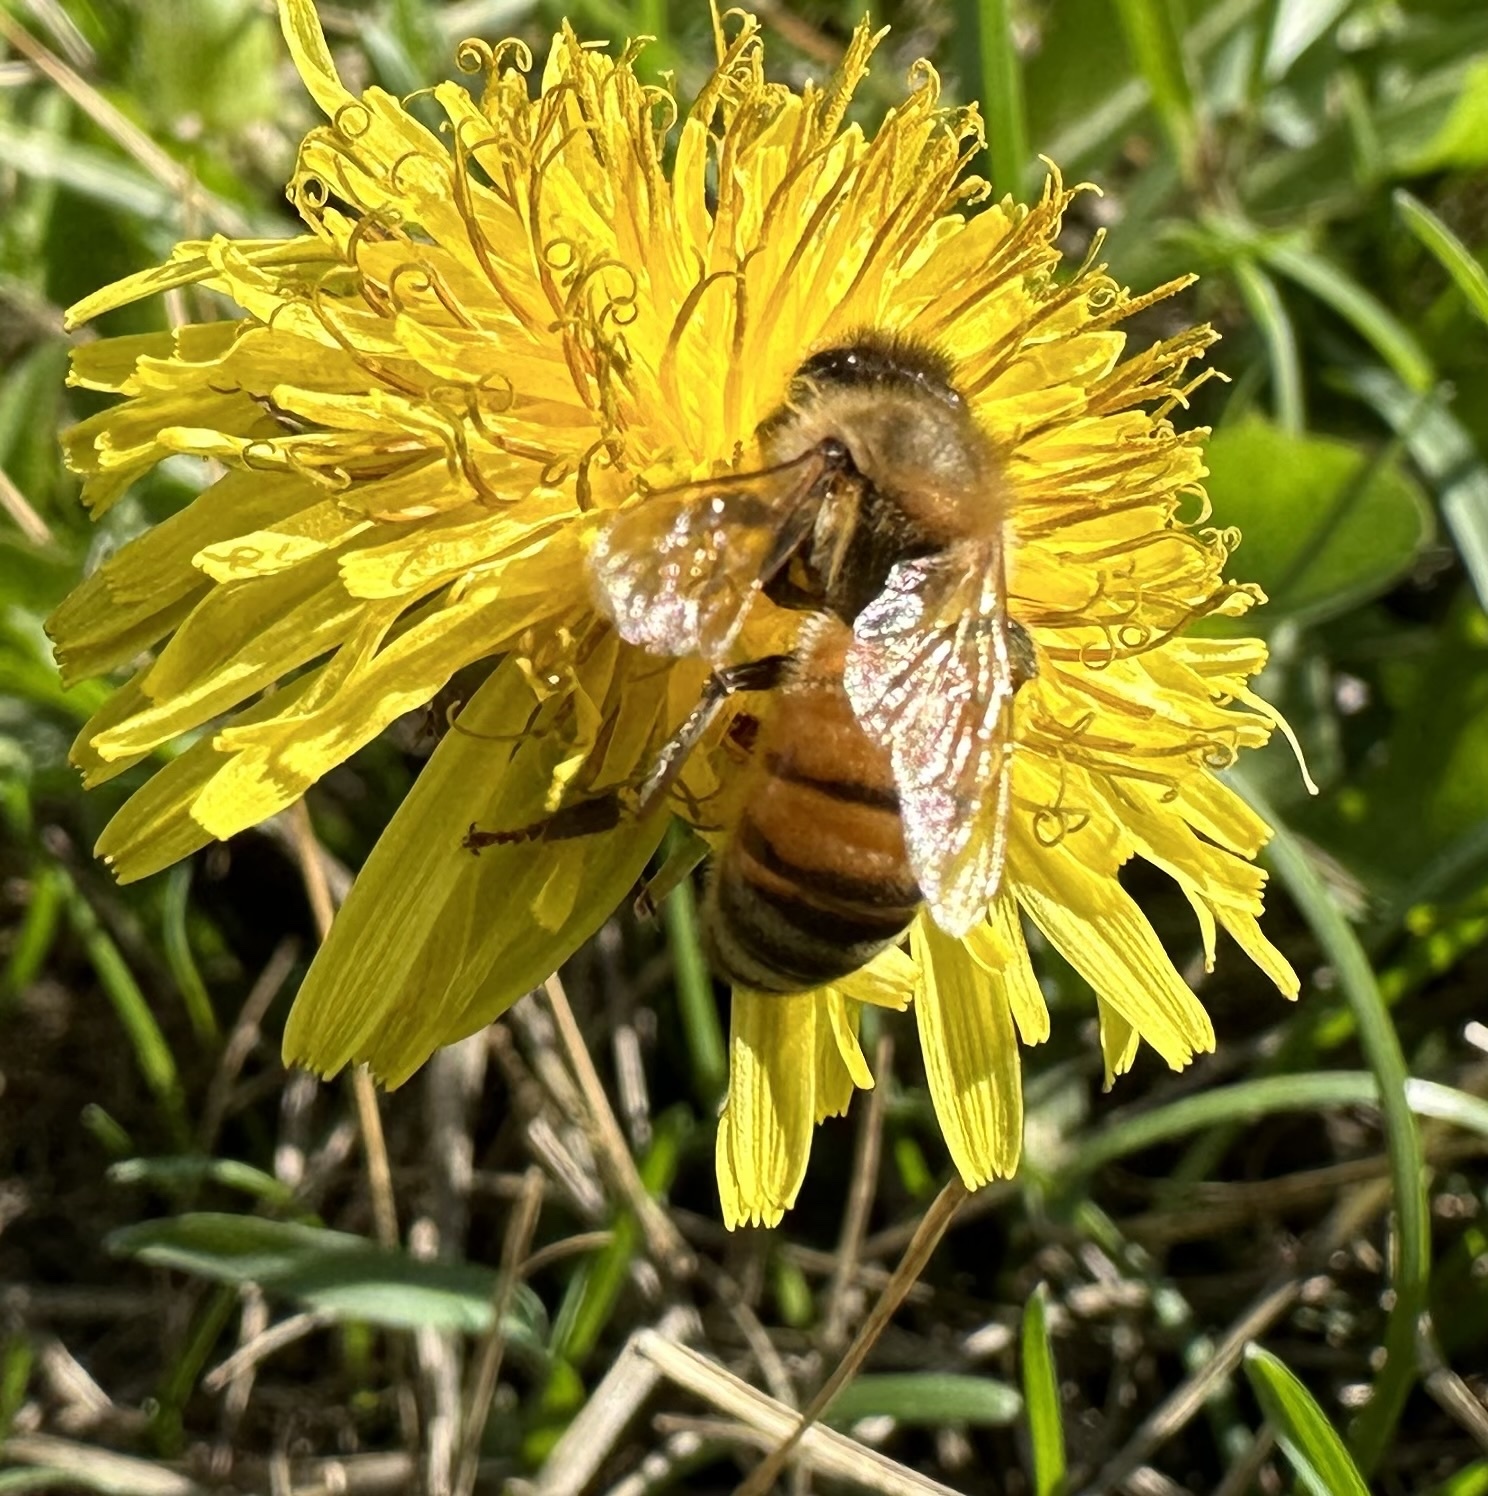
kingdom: Animalia
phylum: Arthropoda
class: Insecta
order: Hymenoptera
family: Apidae
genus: Apis
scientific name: Apis mellifera
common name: Honey bee
